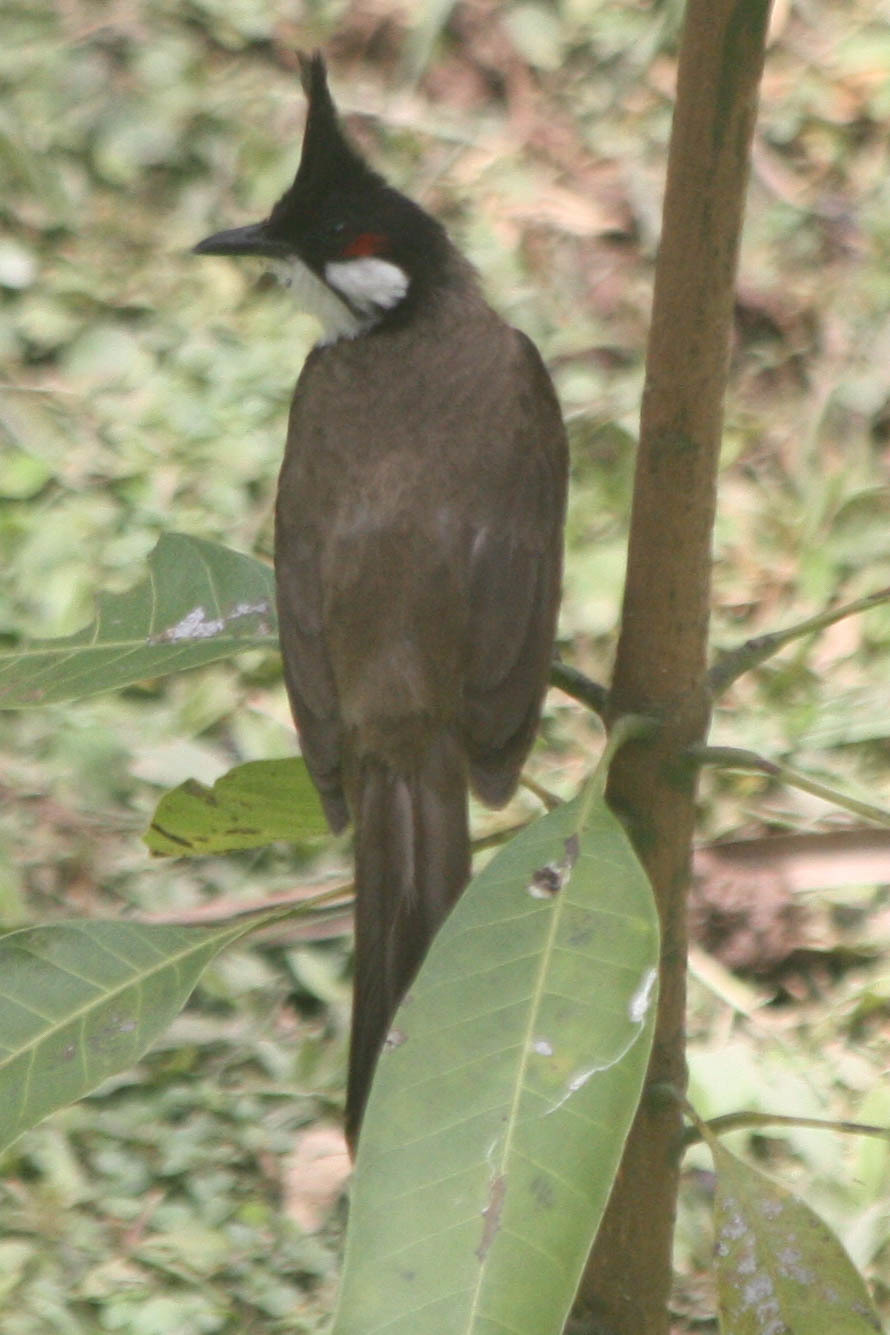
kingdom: Animalia
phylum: Chordata
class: Aves
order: Passeriformes
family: Pycnonotidae
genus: Pycnonotus
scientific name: Pycnonotus jocosus
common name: Red-whiskered bulbul
